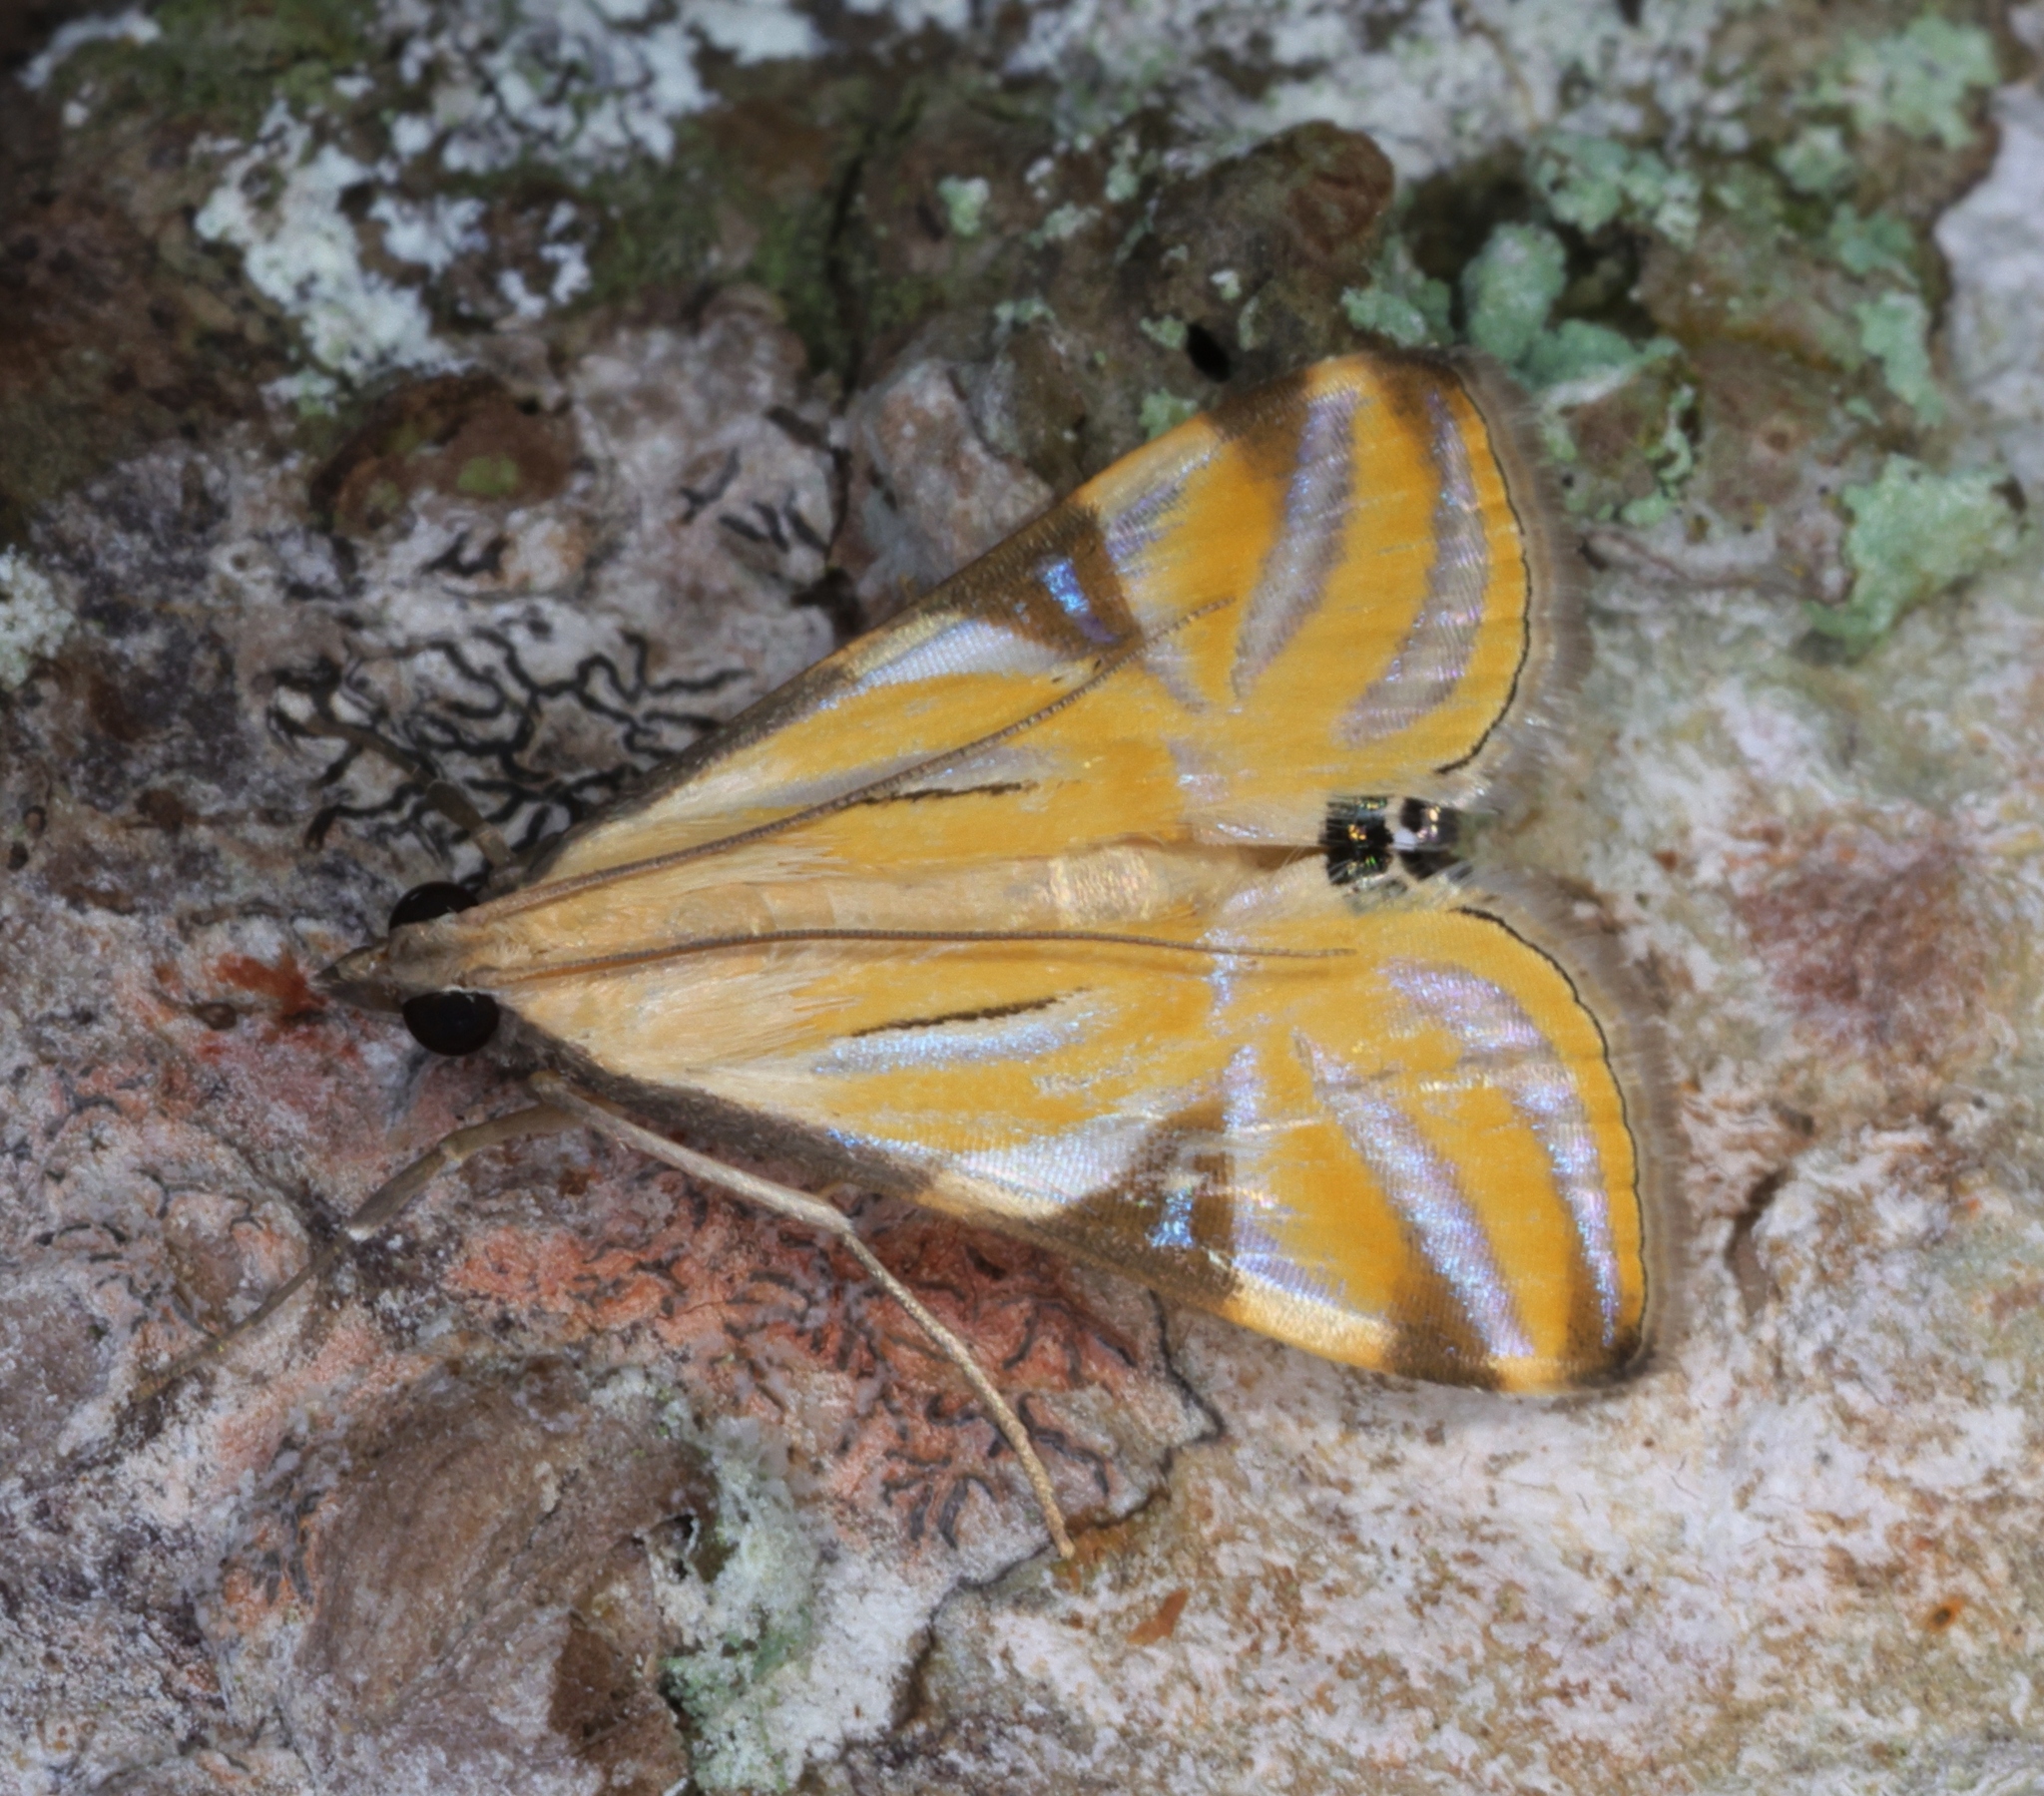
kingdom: Animalia
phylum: Arthropoda
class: Insecta
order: Lepidoptera
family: Crambidae
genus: Talanga
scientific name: Talanga sexpunctalis
